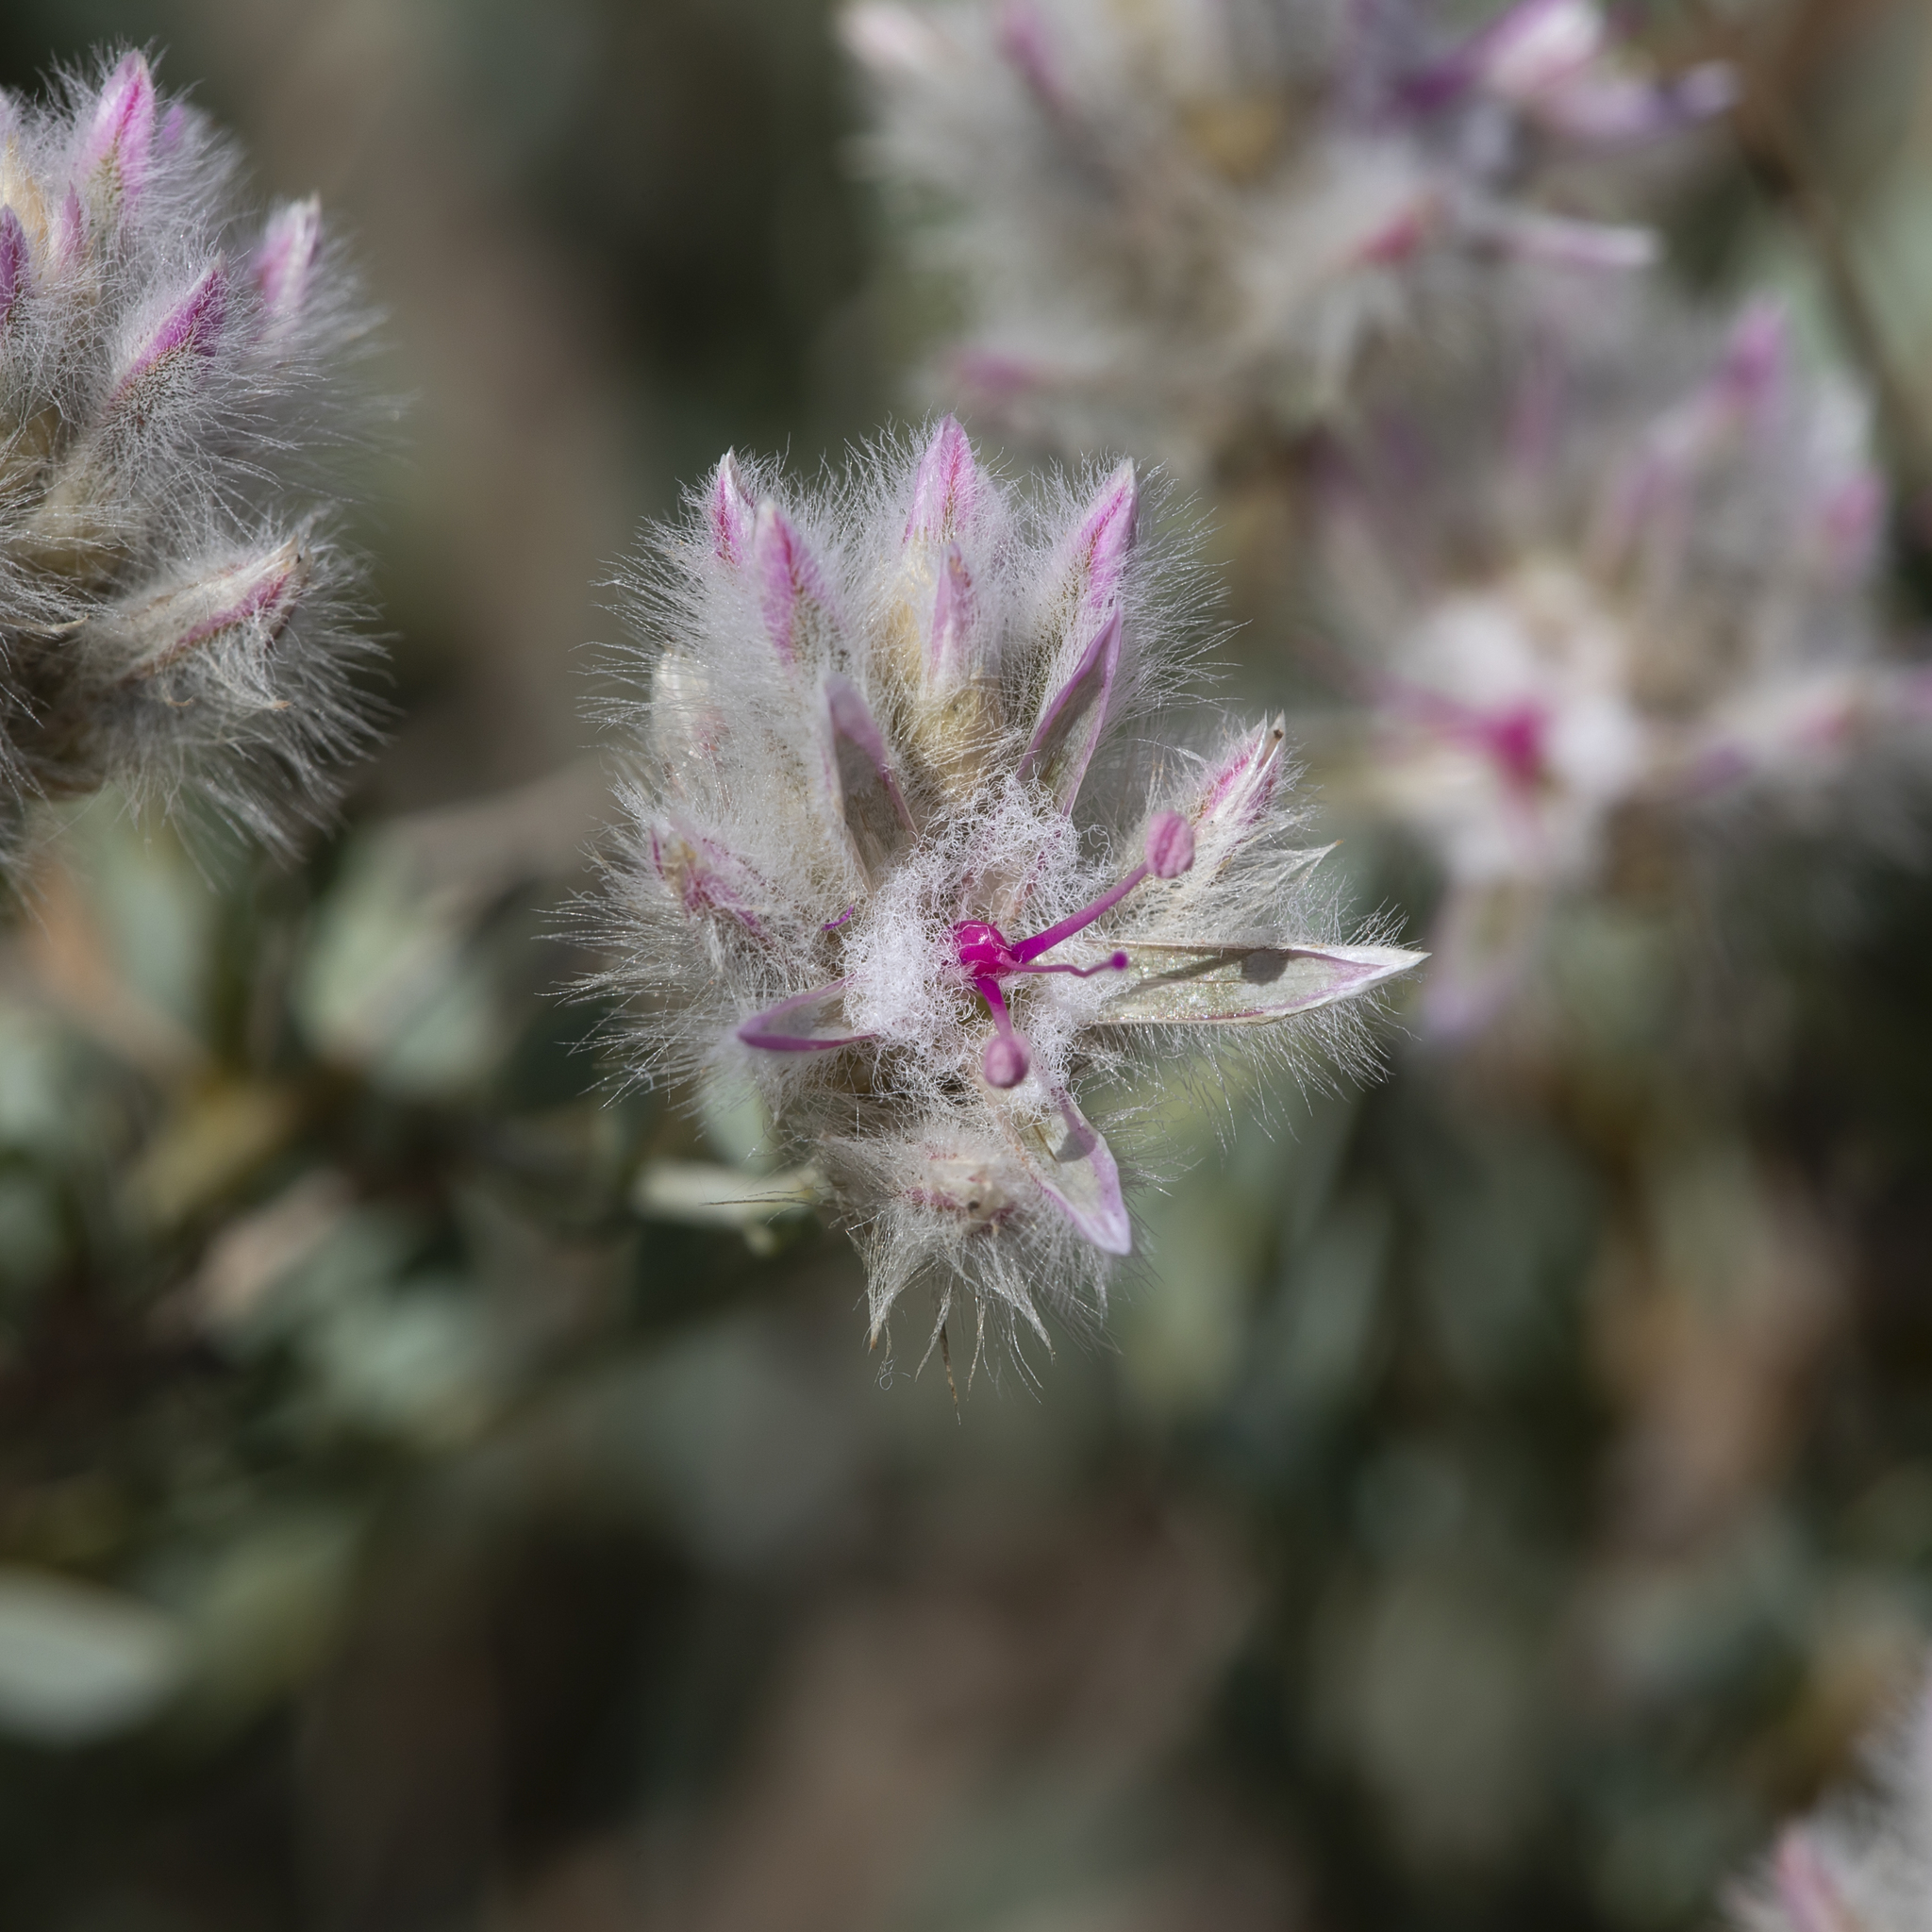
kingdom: Plantae
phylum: Tracheophyta
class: Magnoliopsida
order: Caryophyllales
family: Amaranthaceae
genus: Ptilotus
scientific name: Ptilotus whitei
